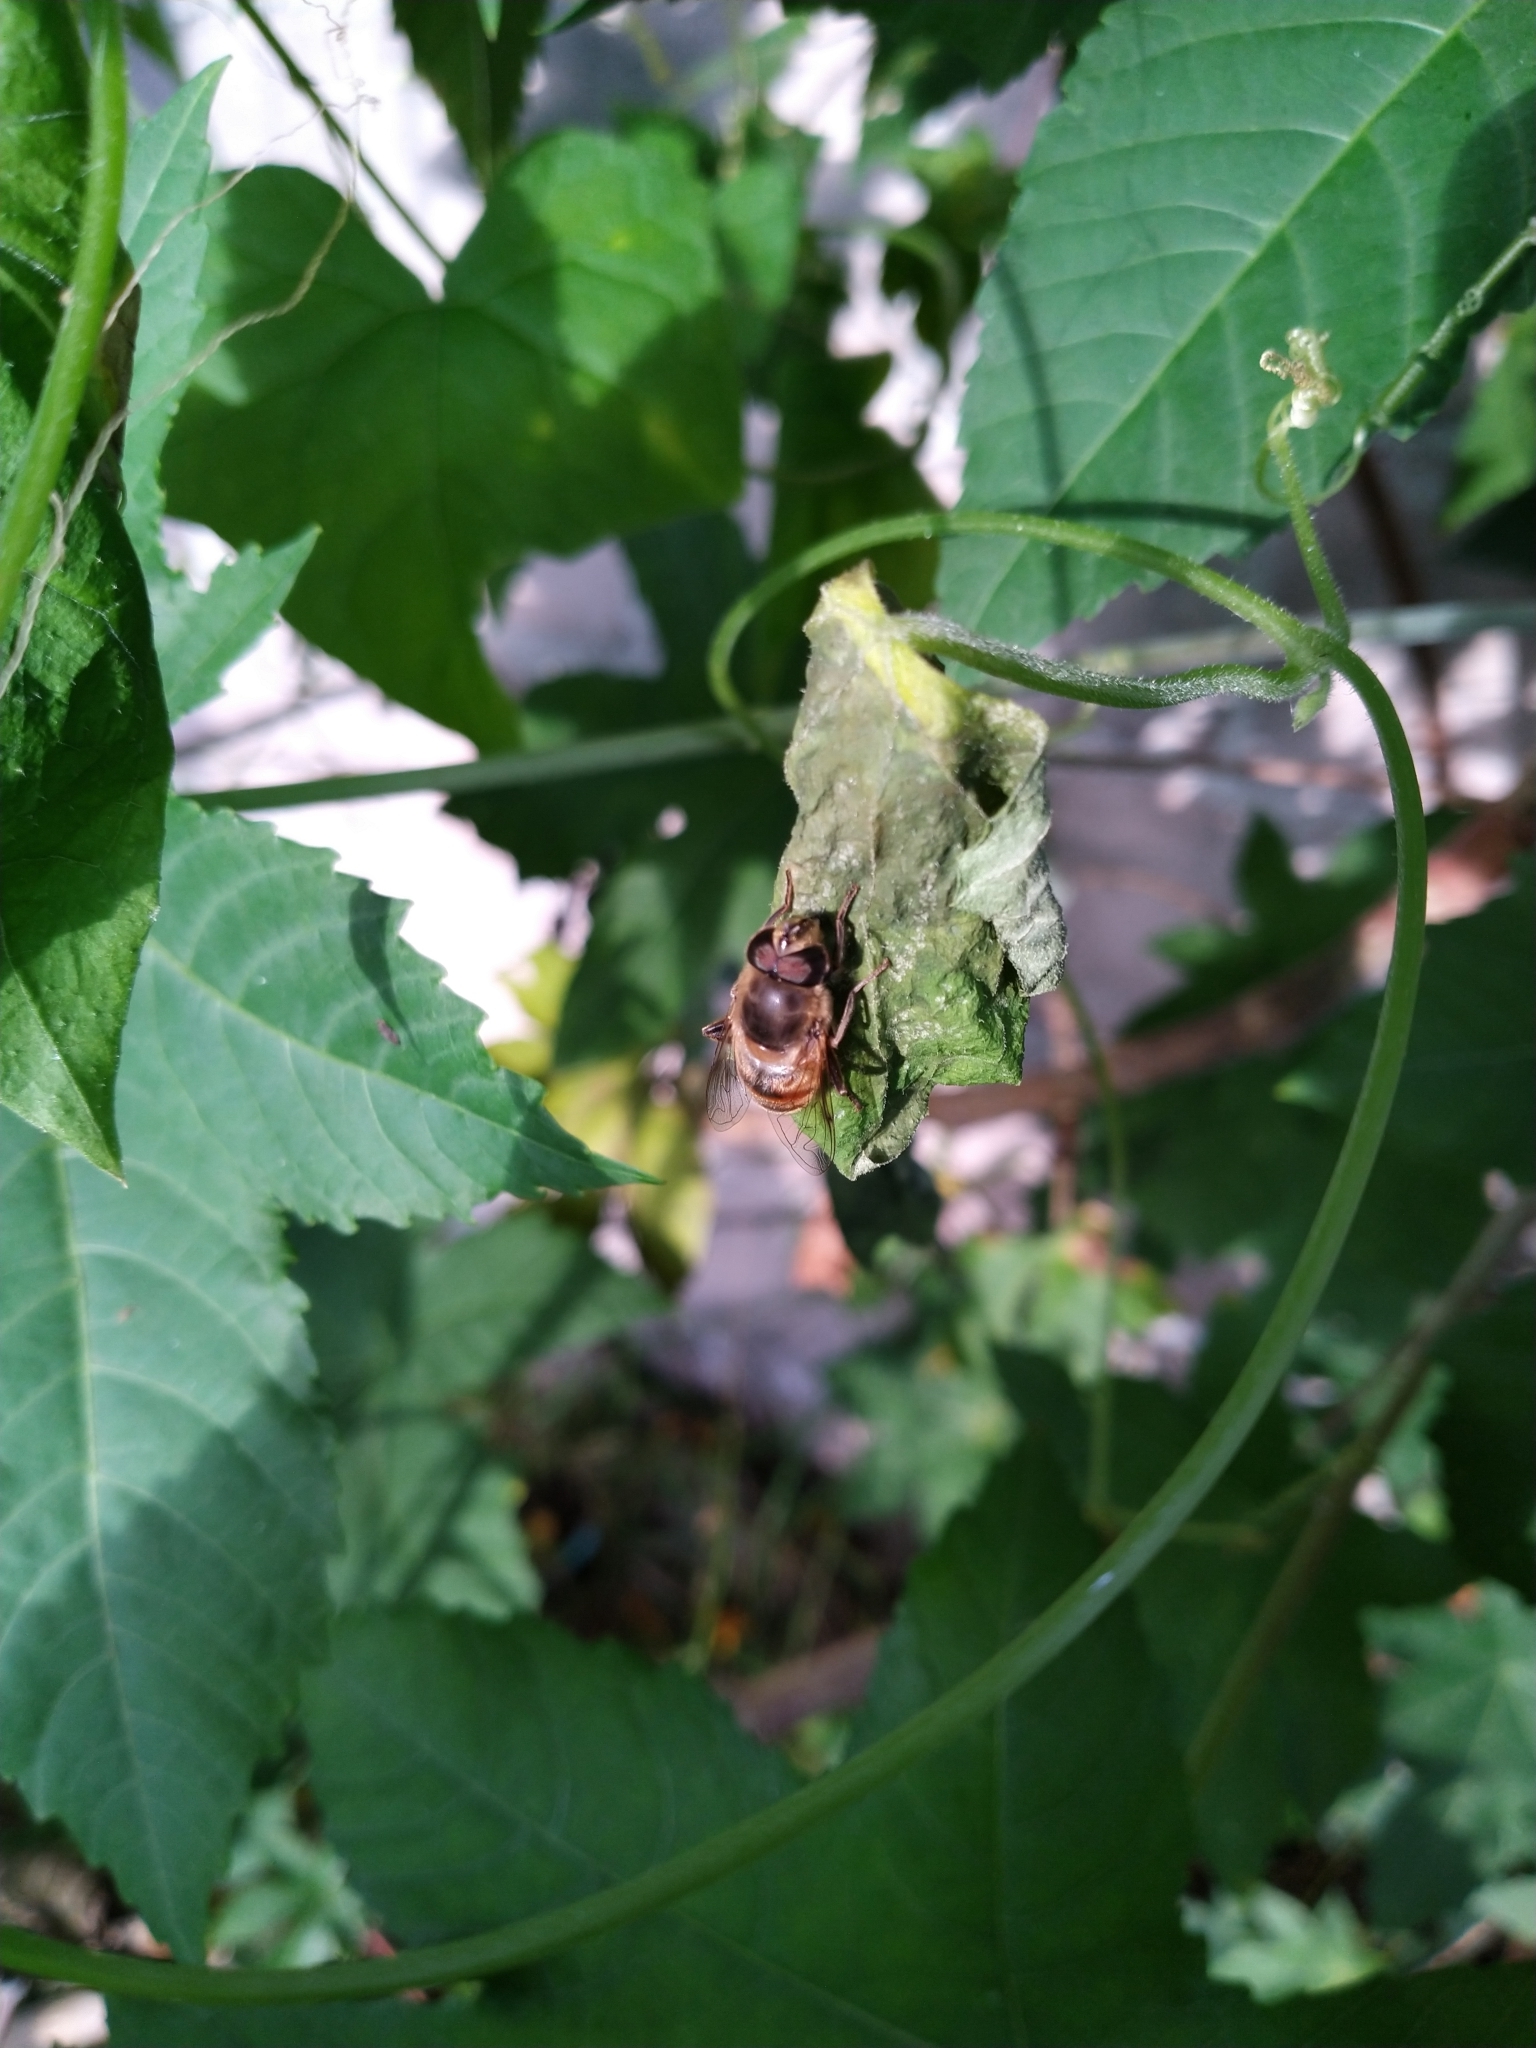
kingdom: Animalia
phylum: Arthropoda
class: Insecta
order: Diptera
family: Syrphidae
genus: Eristalis
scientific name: Eristalis tenax
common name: Drone fly
